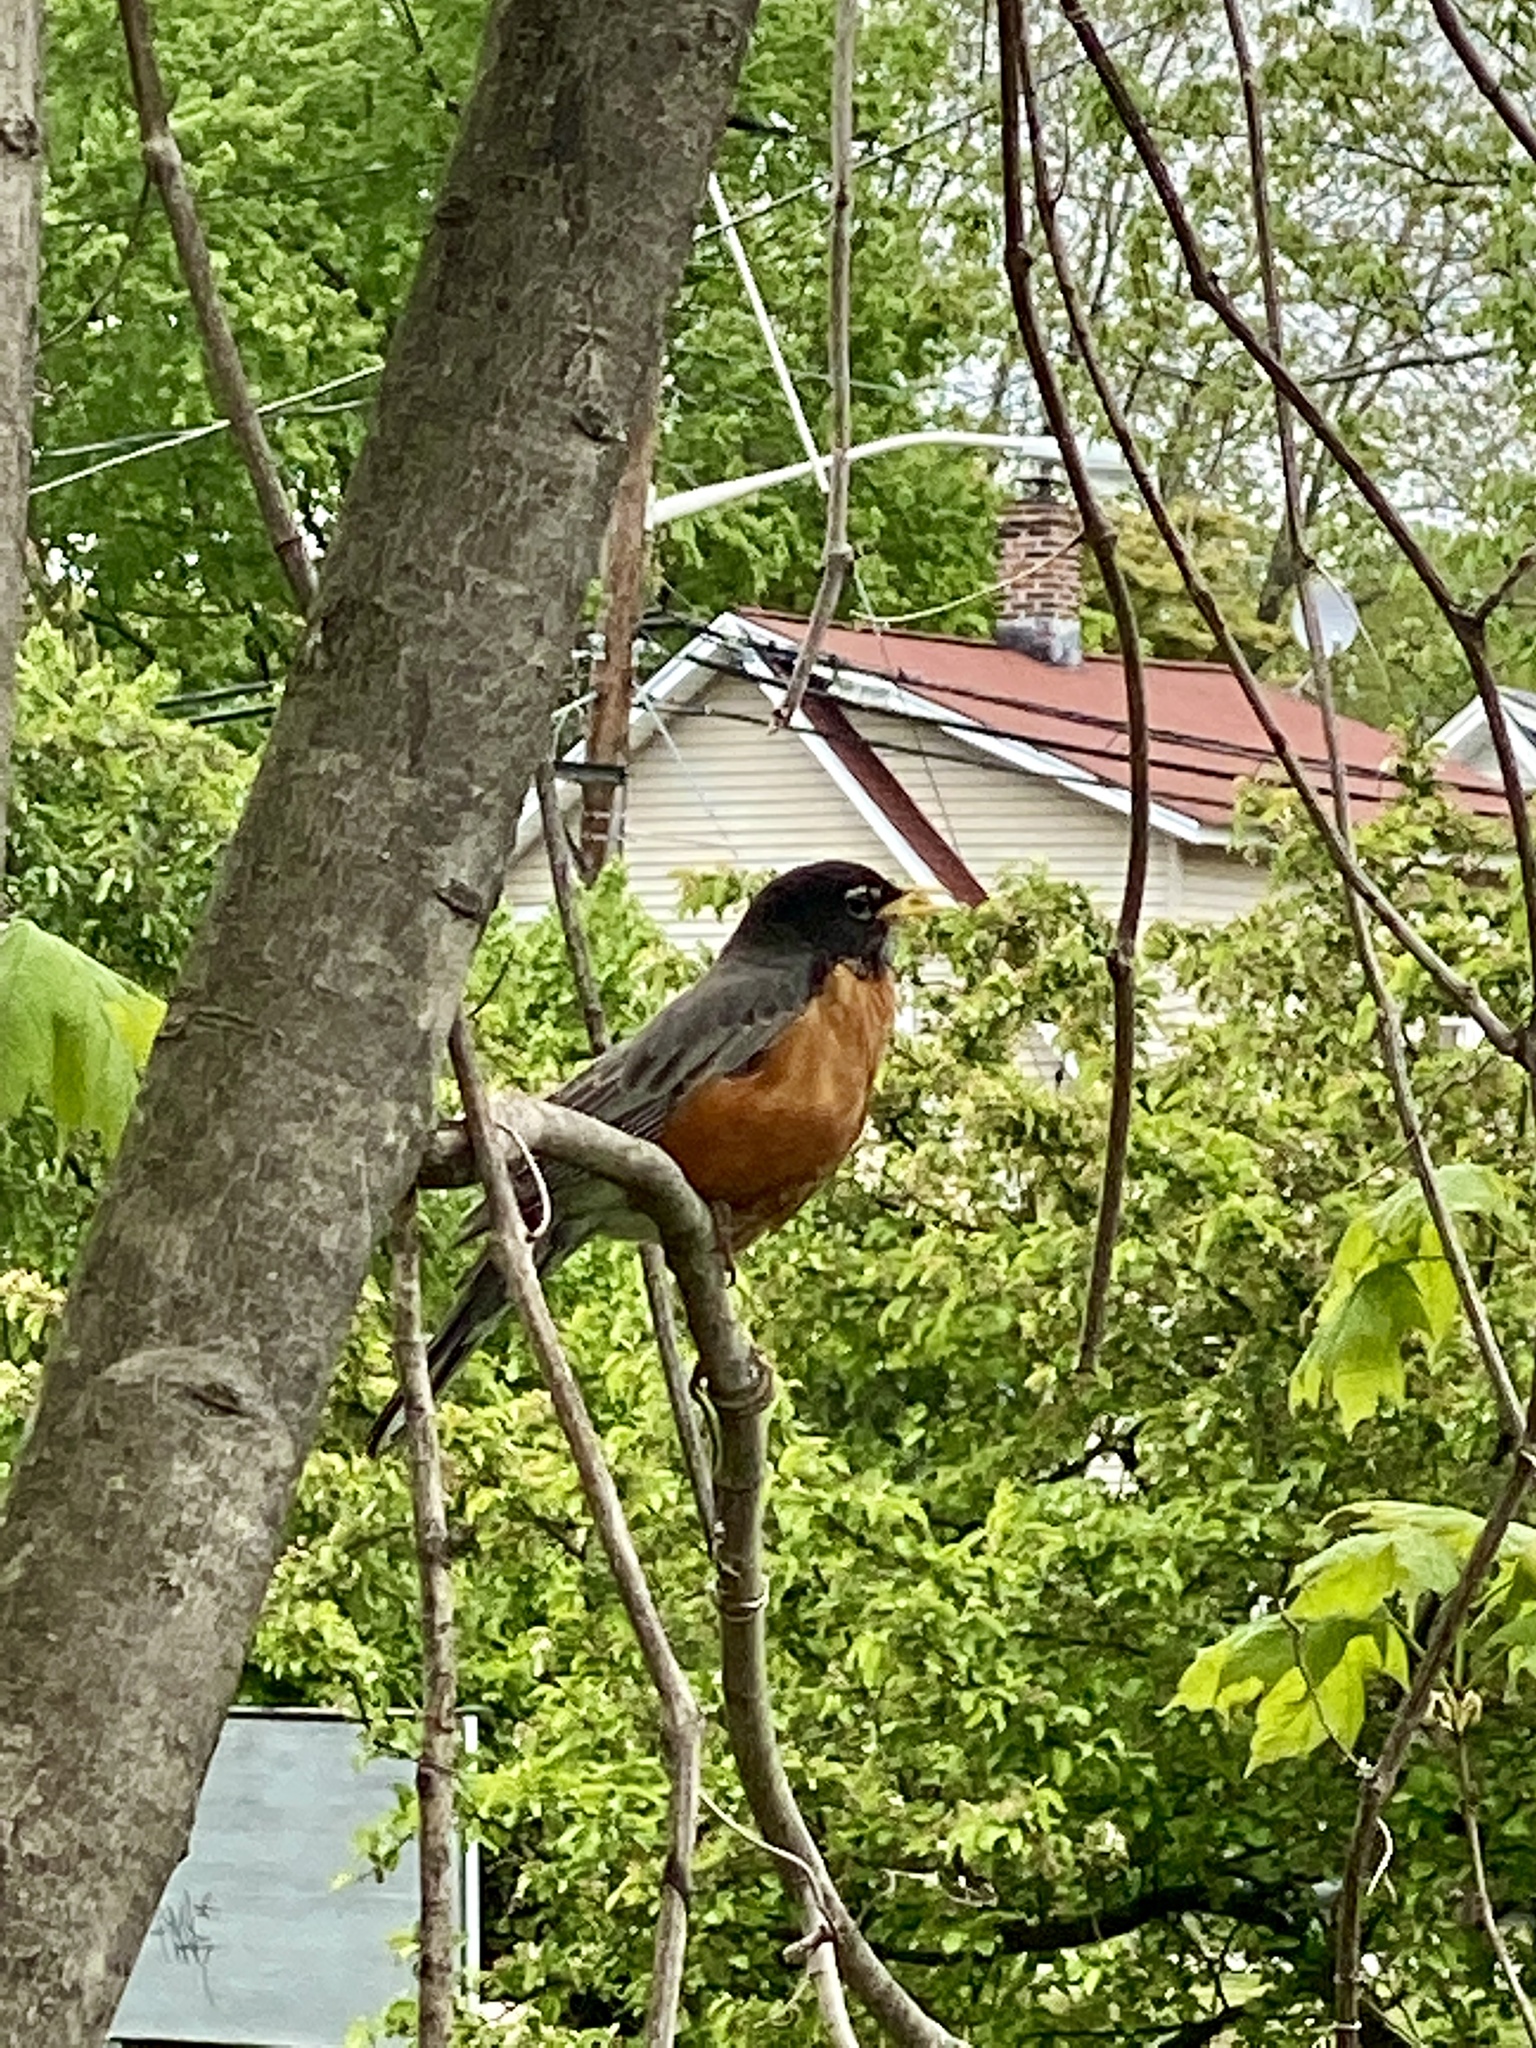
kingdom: Animalia
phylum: Chordata
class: Aves
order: Passeriformes
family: Turdidae
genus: Turdus
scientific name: Turdus migratorius
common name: American robin
